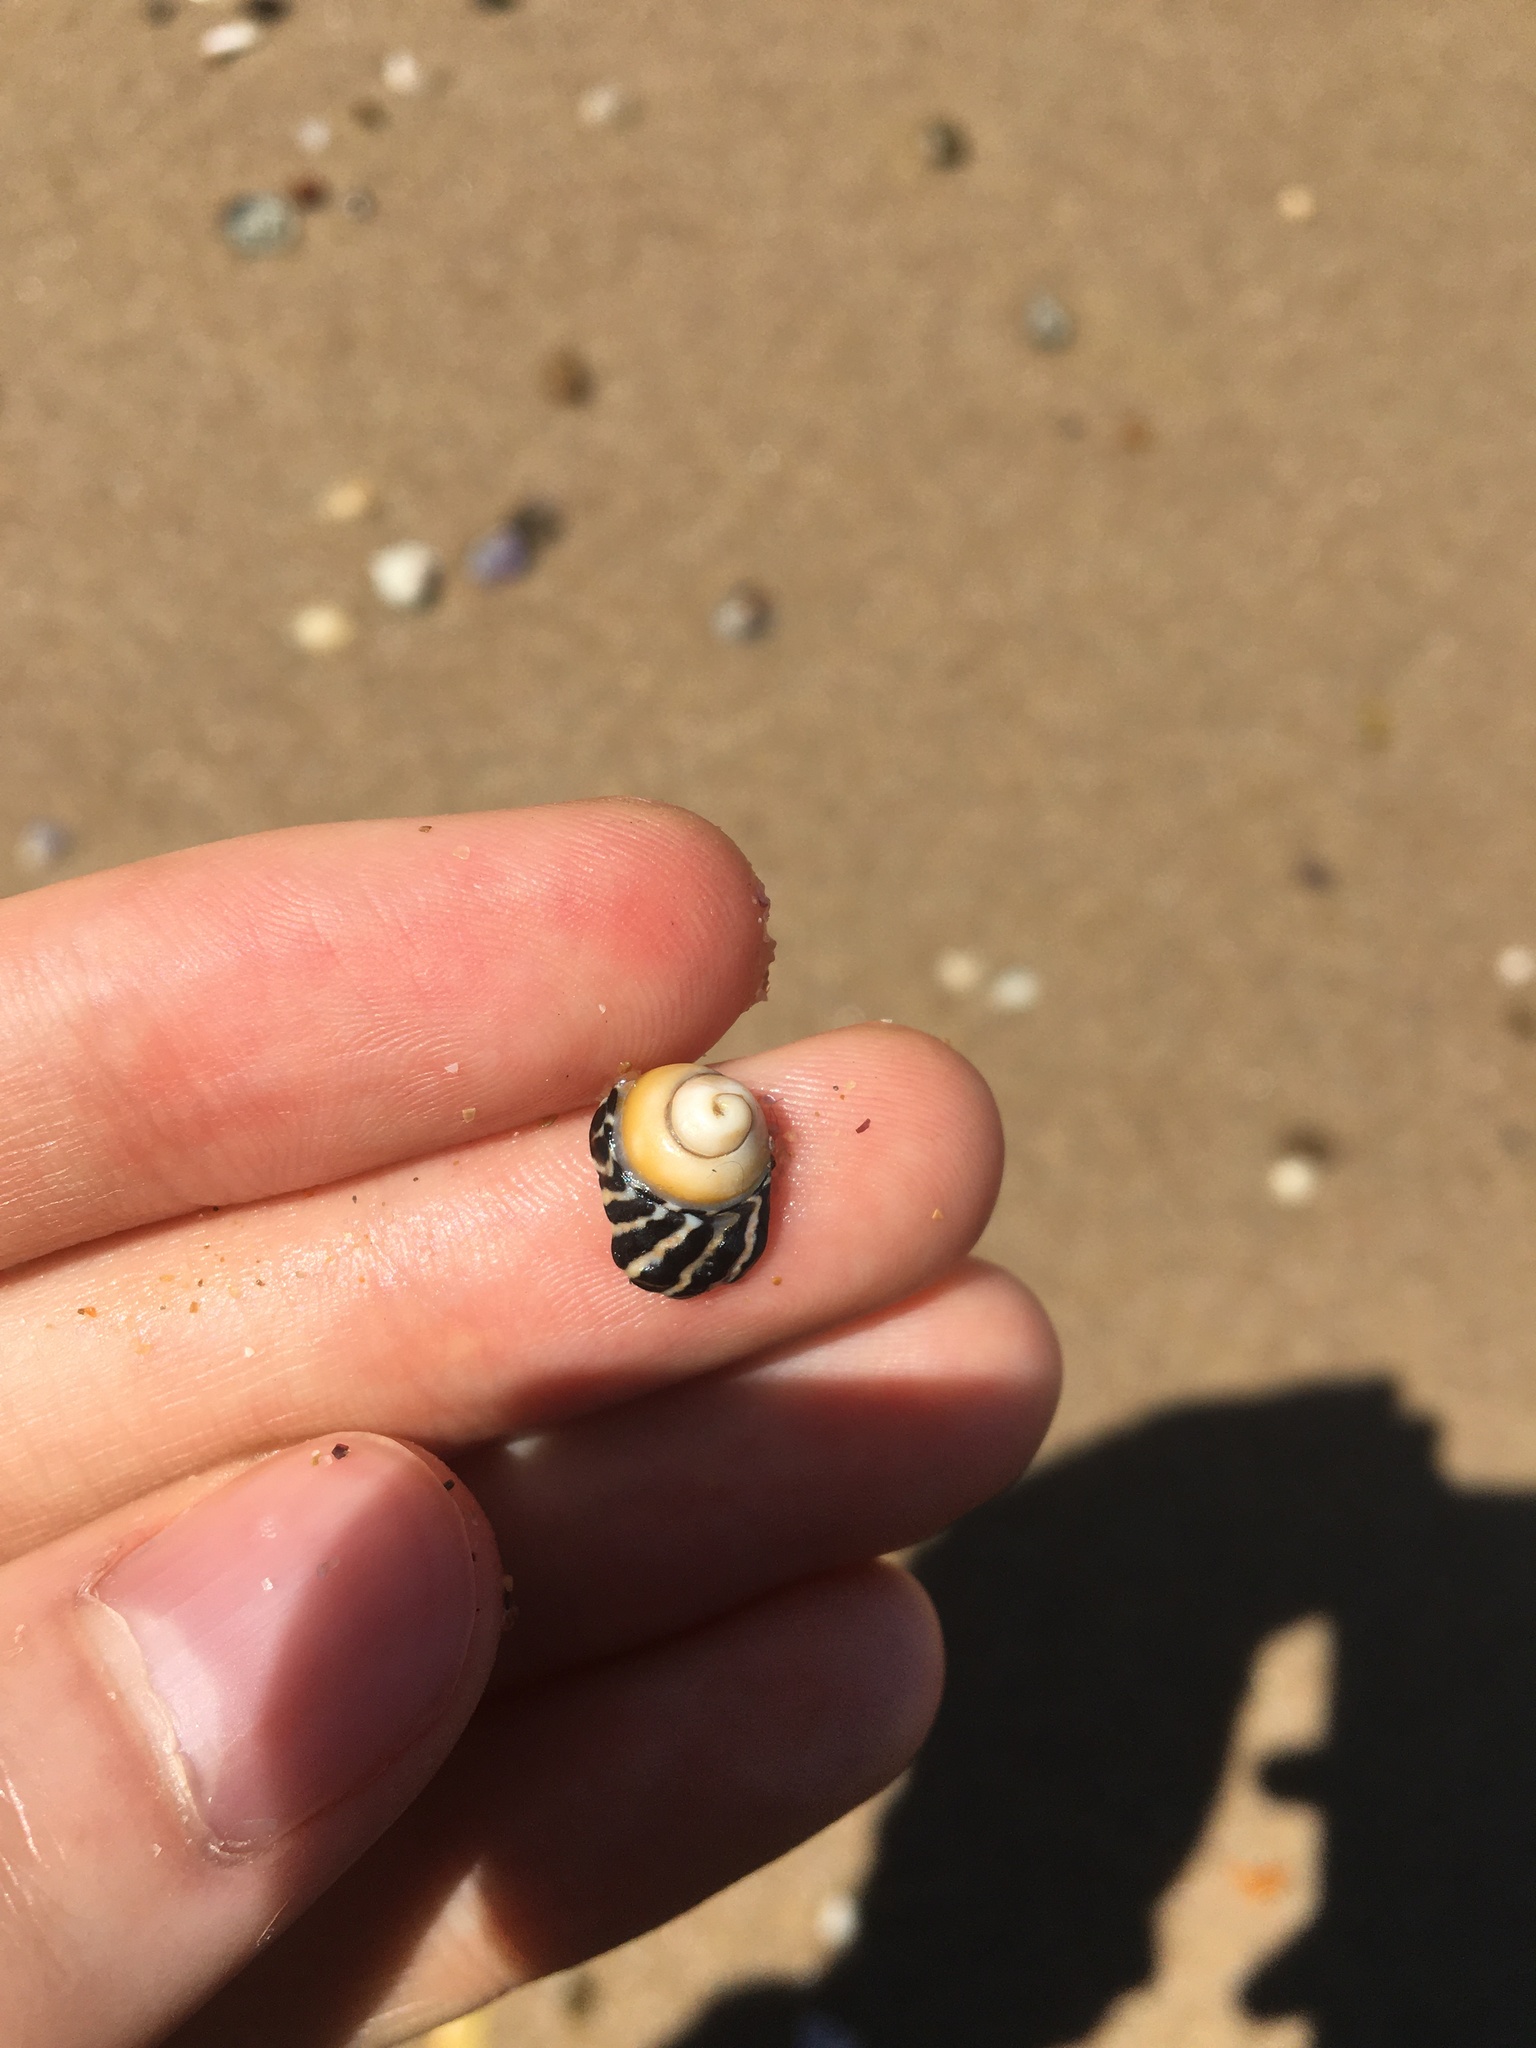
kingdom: Animalia
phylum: Mollusca
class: Gastropoda
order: Trochida
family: Trochidae
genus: Austrocochlea
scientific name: Austrocochlea porcata
